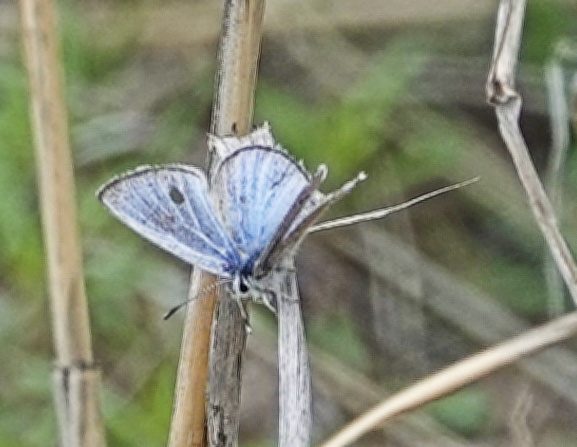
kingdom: Animalia
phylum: Arthropoda
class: Insecta
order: Lepidoptera
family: Lycaenidae
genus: Glaucopsyche
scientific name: Glaucopsyche lygdamus
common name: Silvery blue
